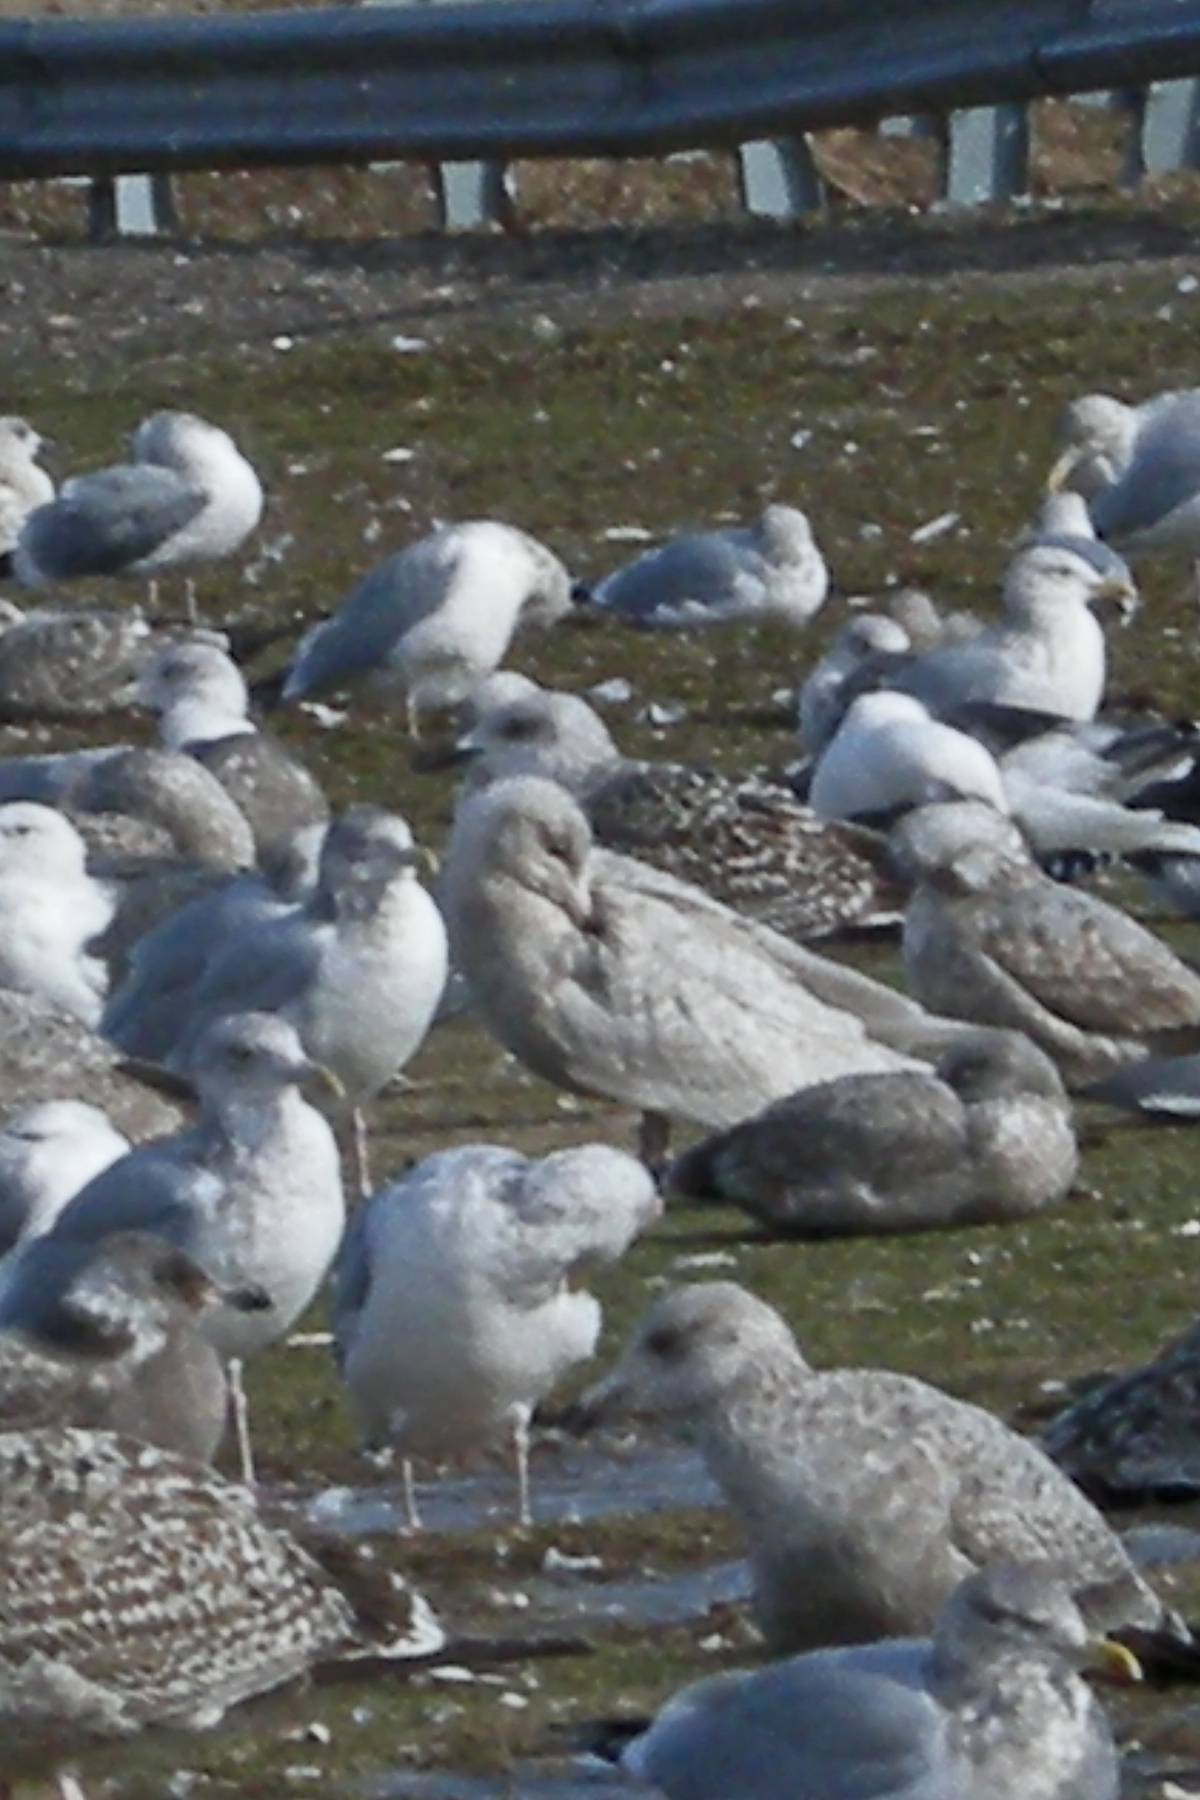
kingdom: Animalia
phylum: Chordata
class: Aves
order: Charadriiformes
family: Laridae
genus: Larus
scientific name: Larus hyperboreus
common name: Glaucous gull
